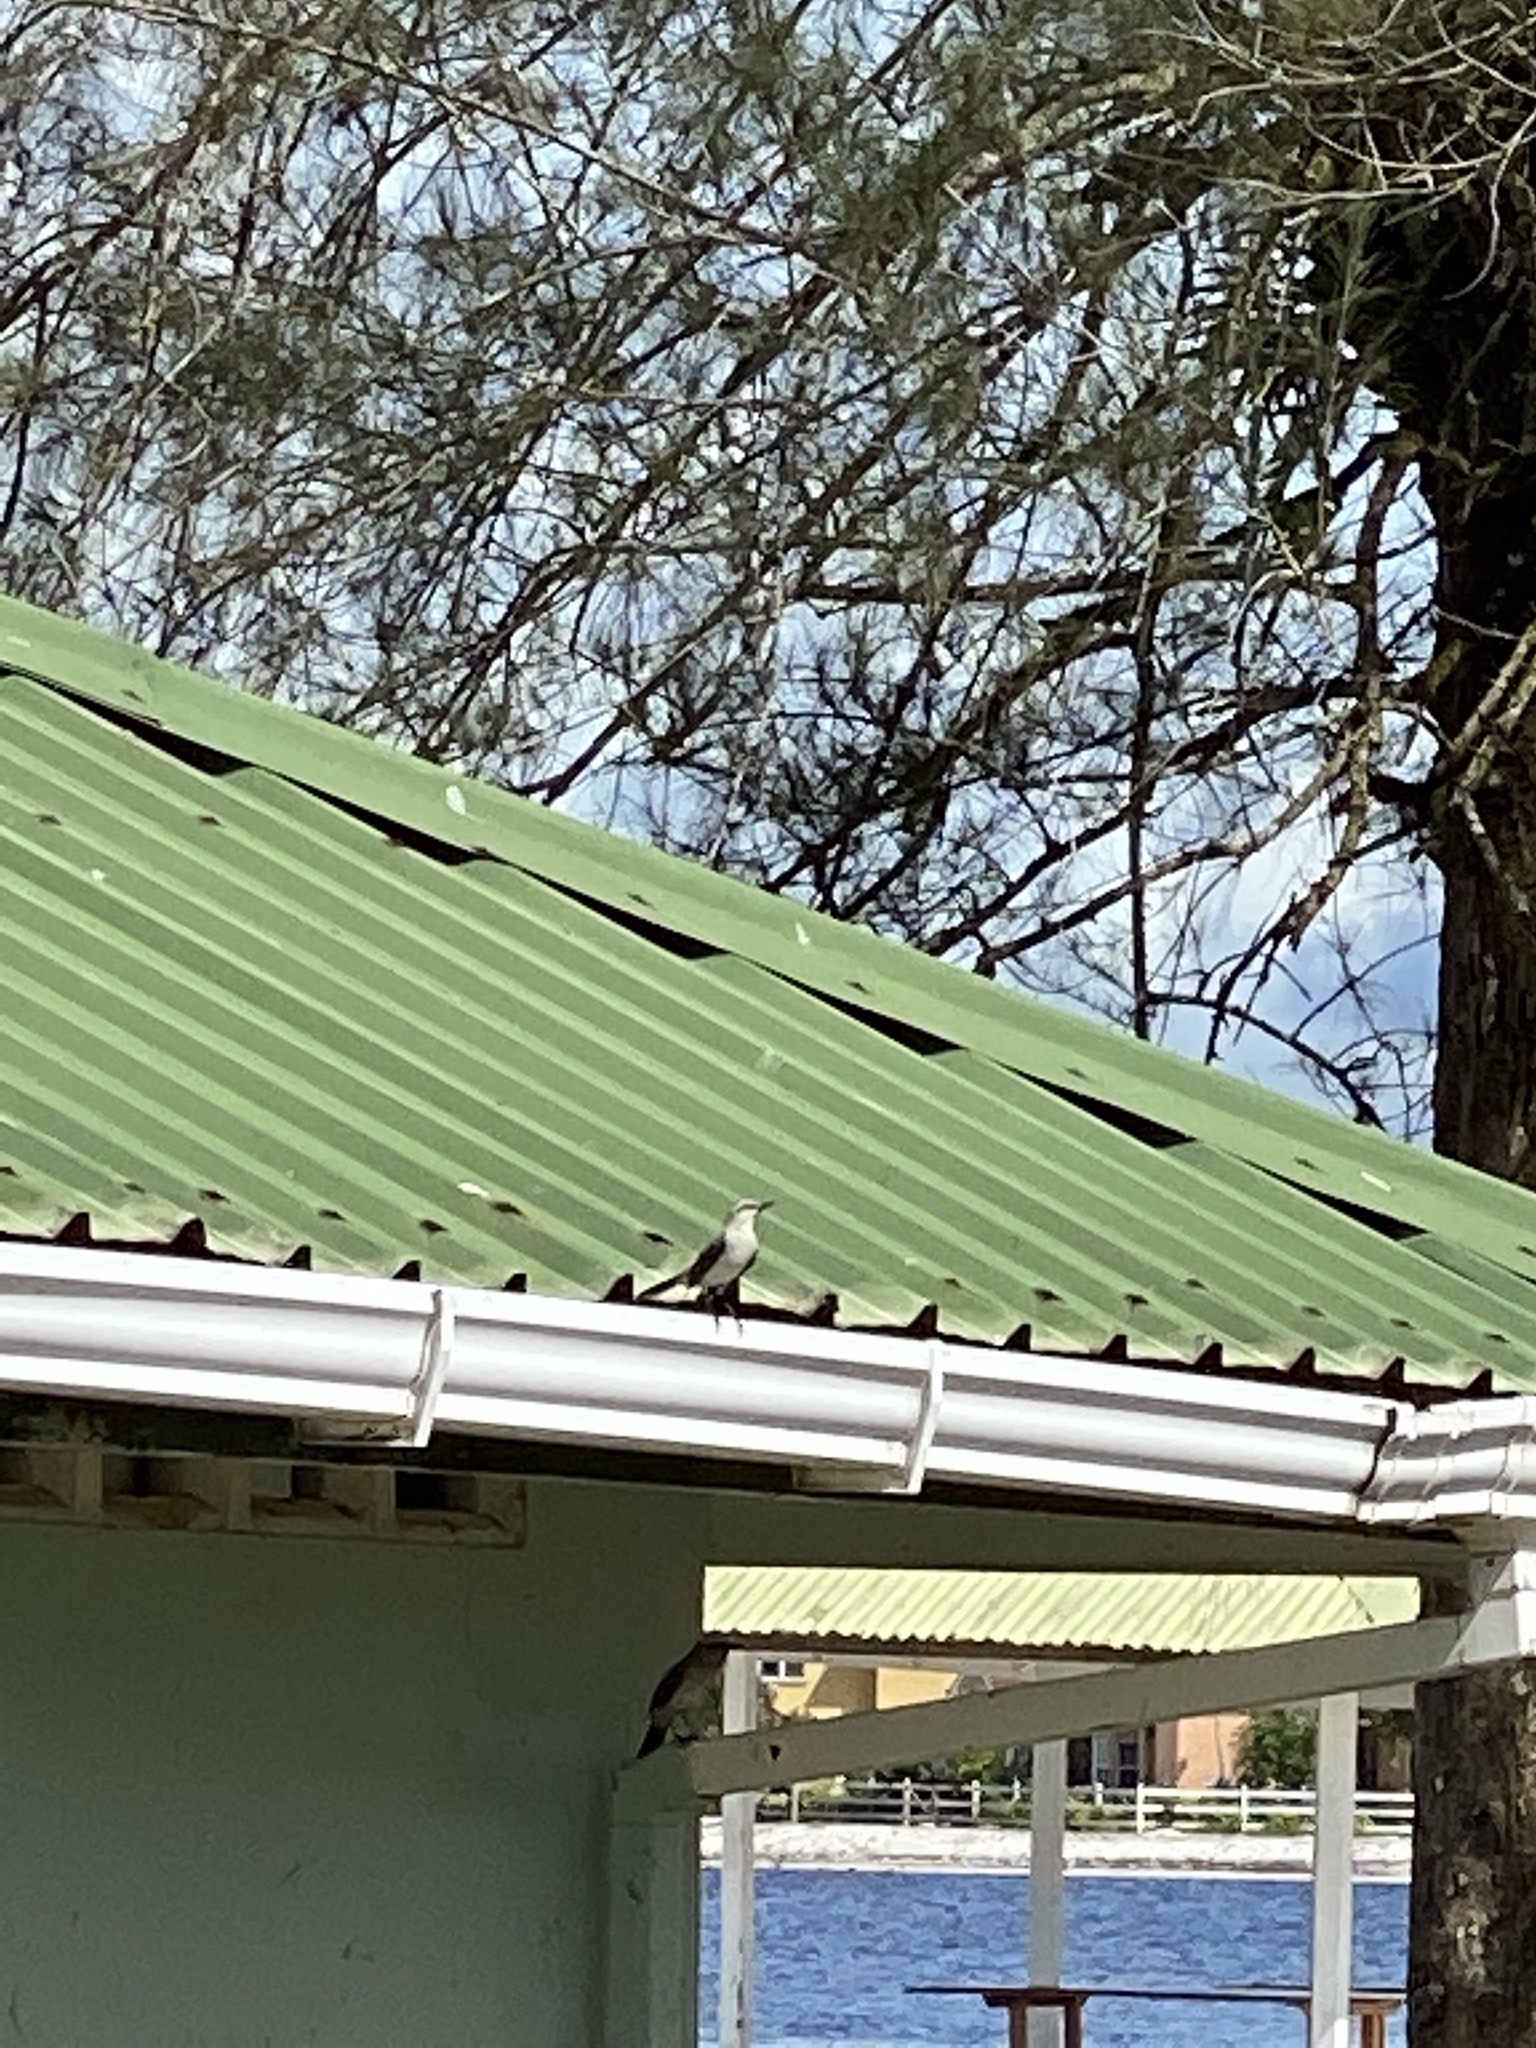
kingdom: Animalia
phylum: Chordata
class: Aves
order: Passeriformes
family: Mimidae
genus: Mimus
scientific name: Mimus gilvus
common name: Tropical mockingbird
